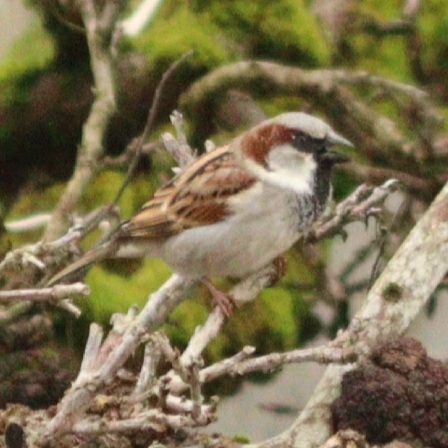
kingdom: Animalia
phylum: Chordata
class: Aves
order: Passeriformes
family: Passeridae
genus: Passer
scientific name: Passer domesticus
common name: House sparrow
